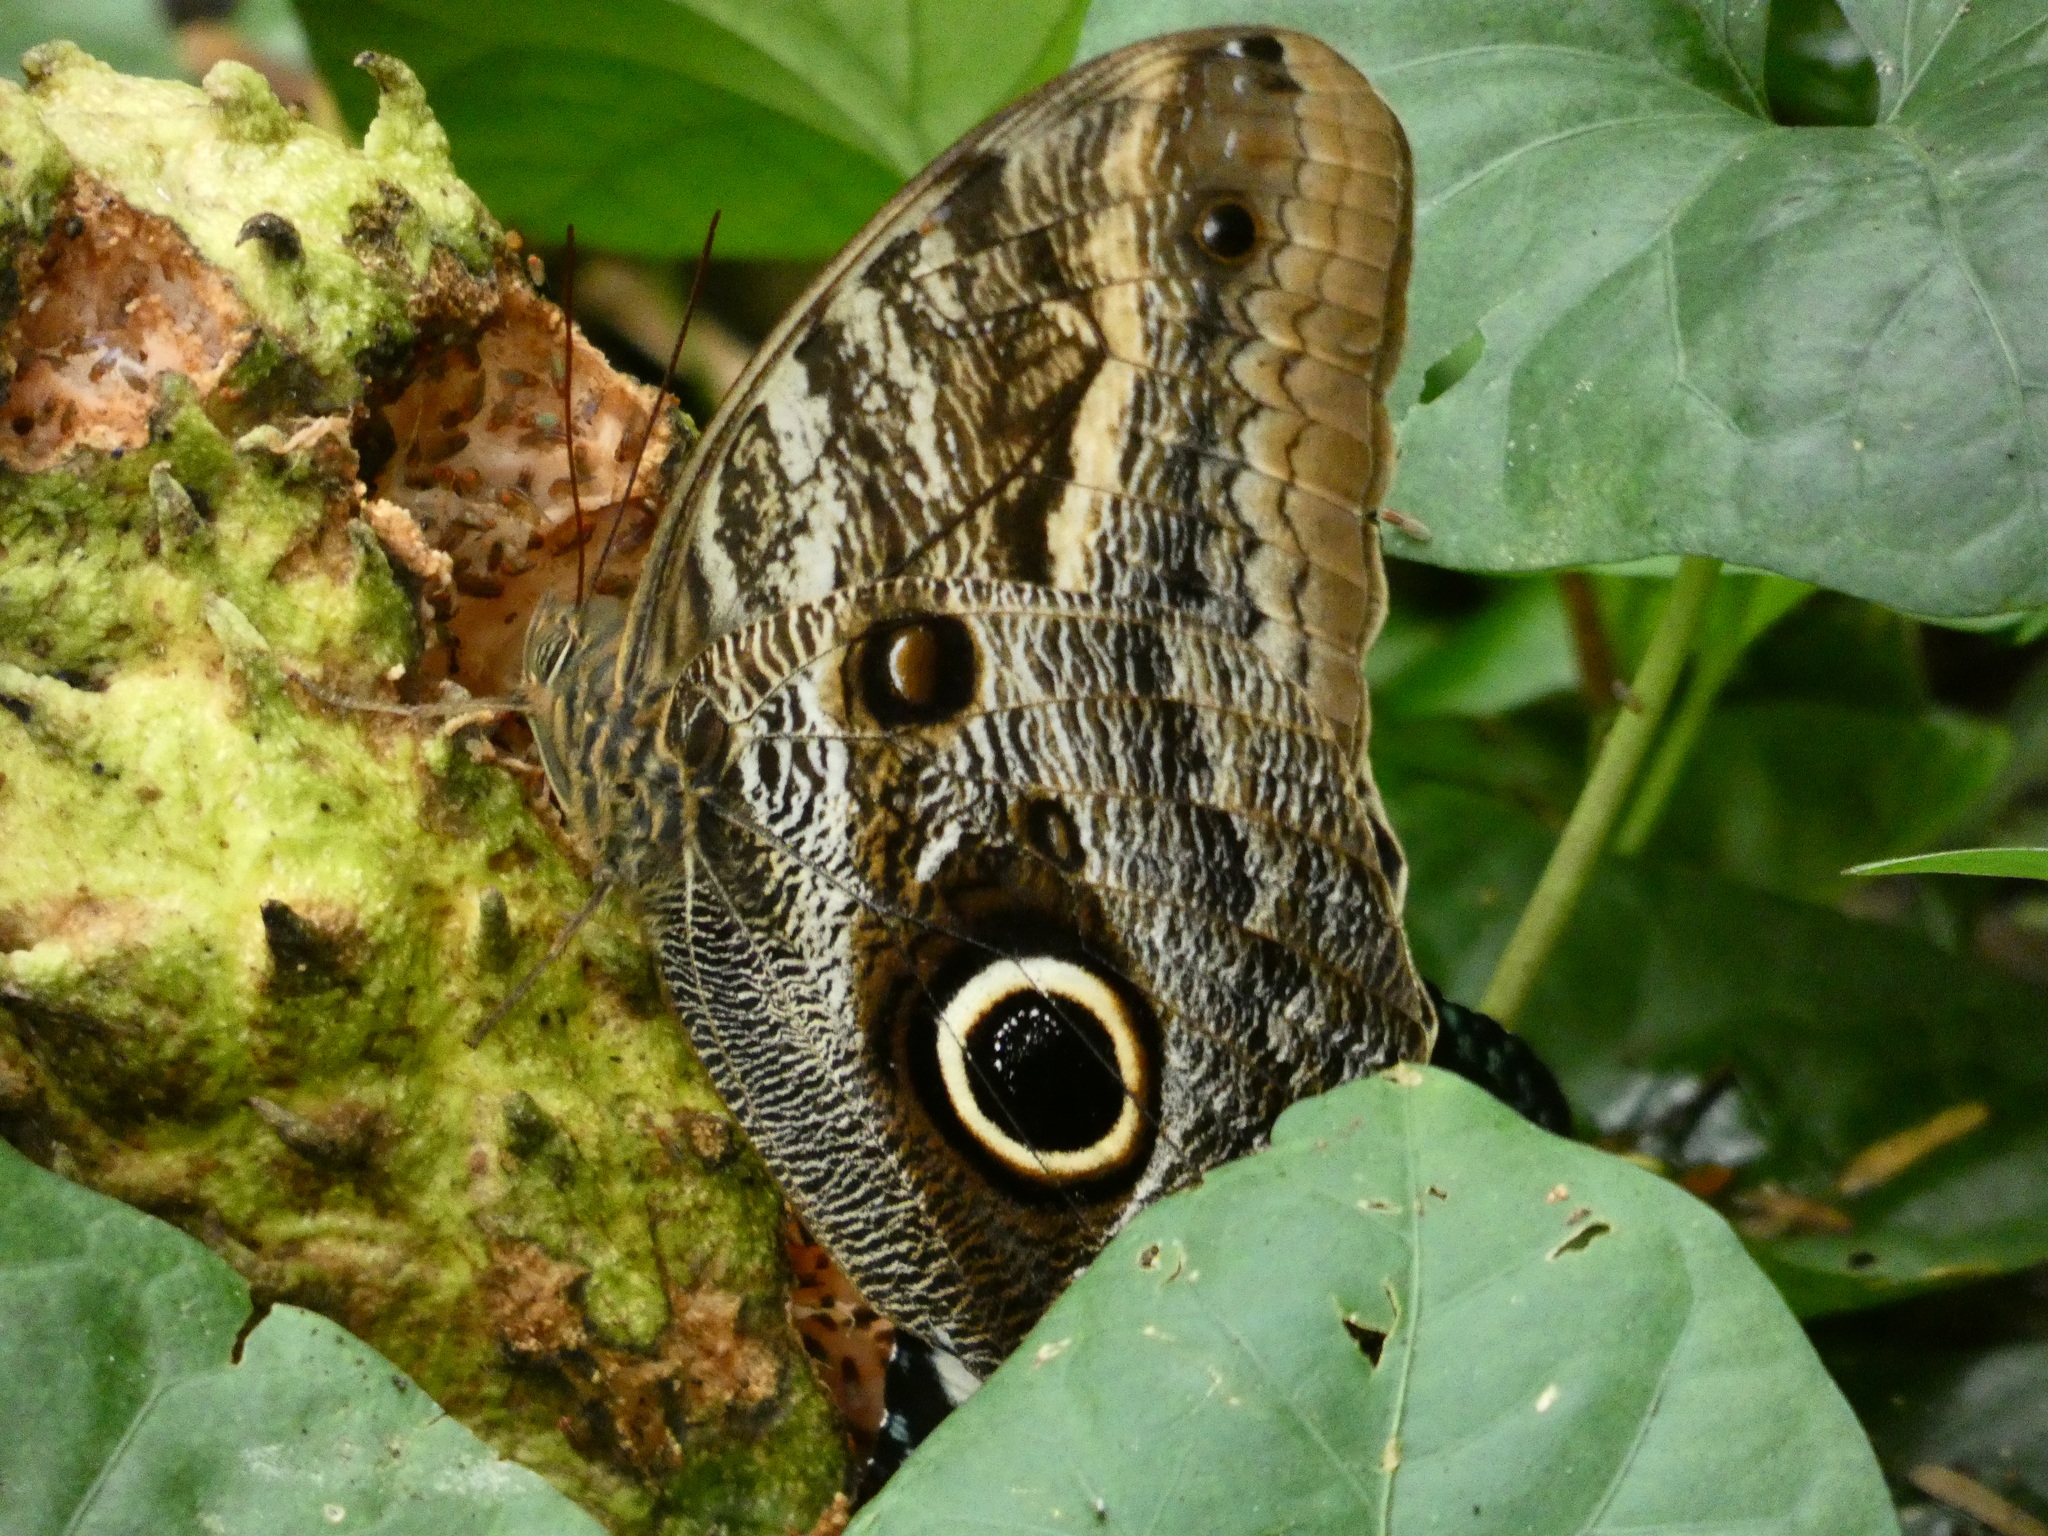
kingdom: Animalia
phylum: Arthropoda
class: Insecta
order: Lepidoptera
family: Nymphalidae
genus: Caligo
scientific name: Caligo teucer
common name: Teucer owl butterfly
